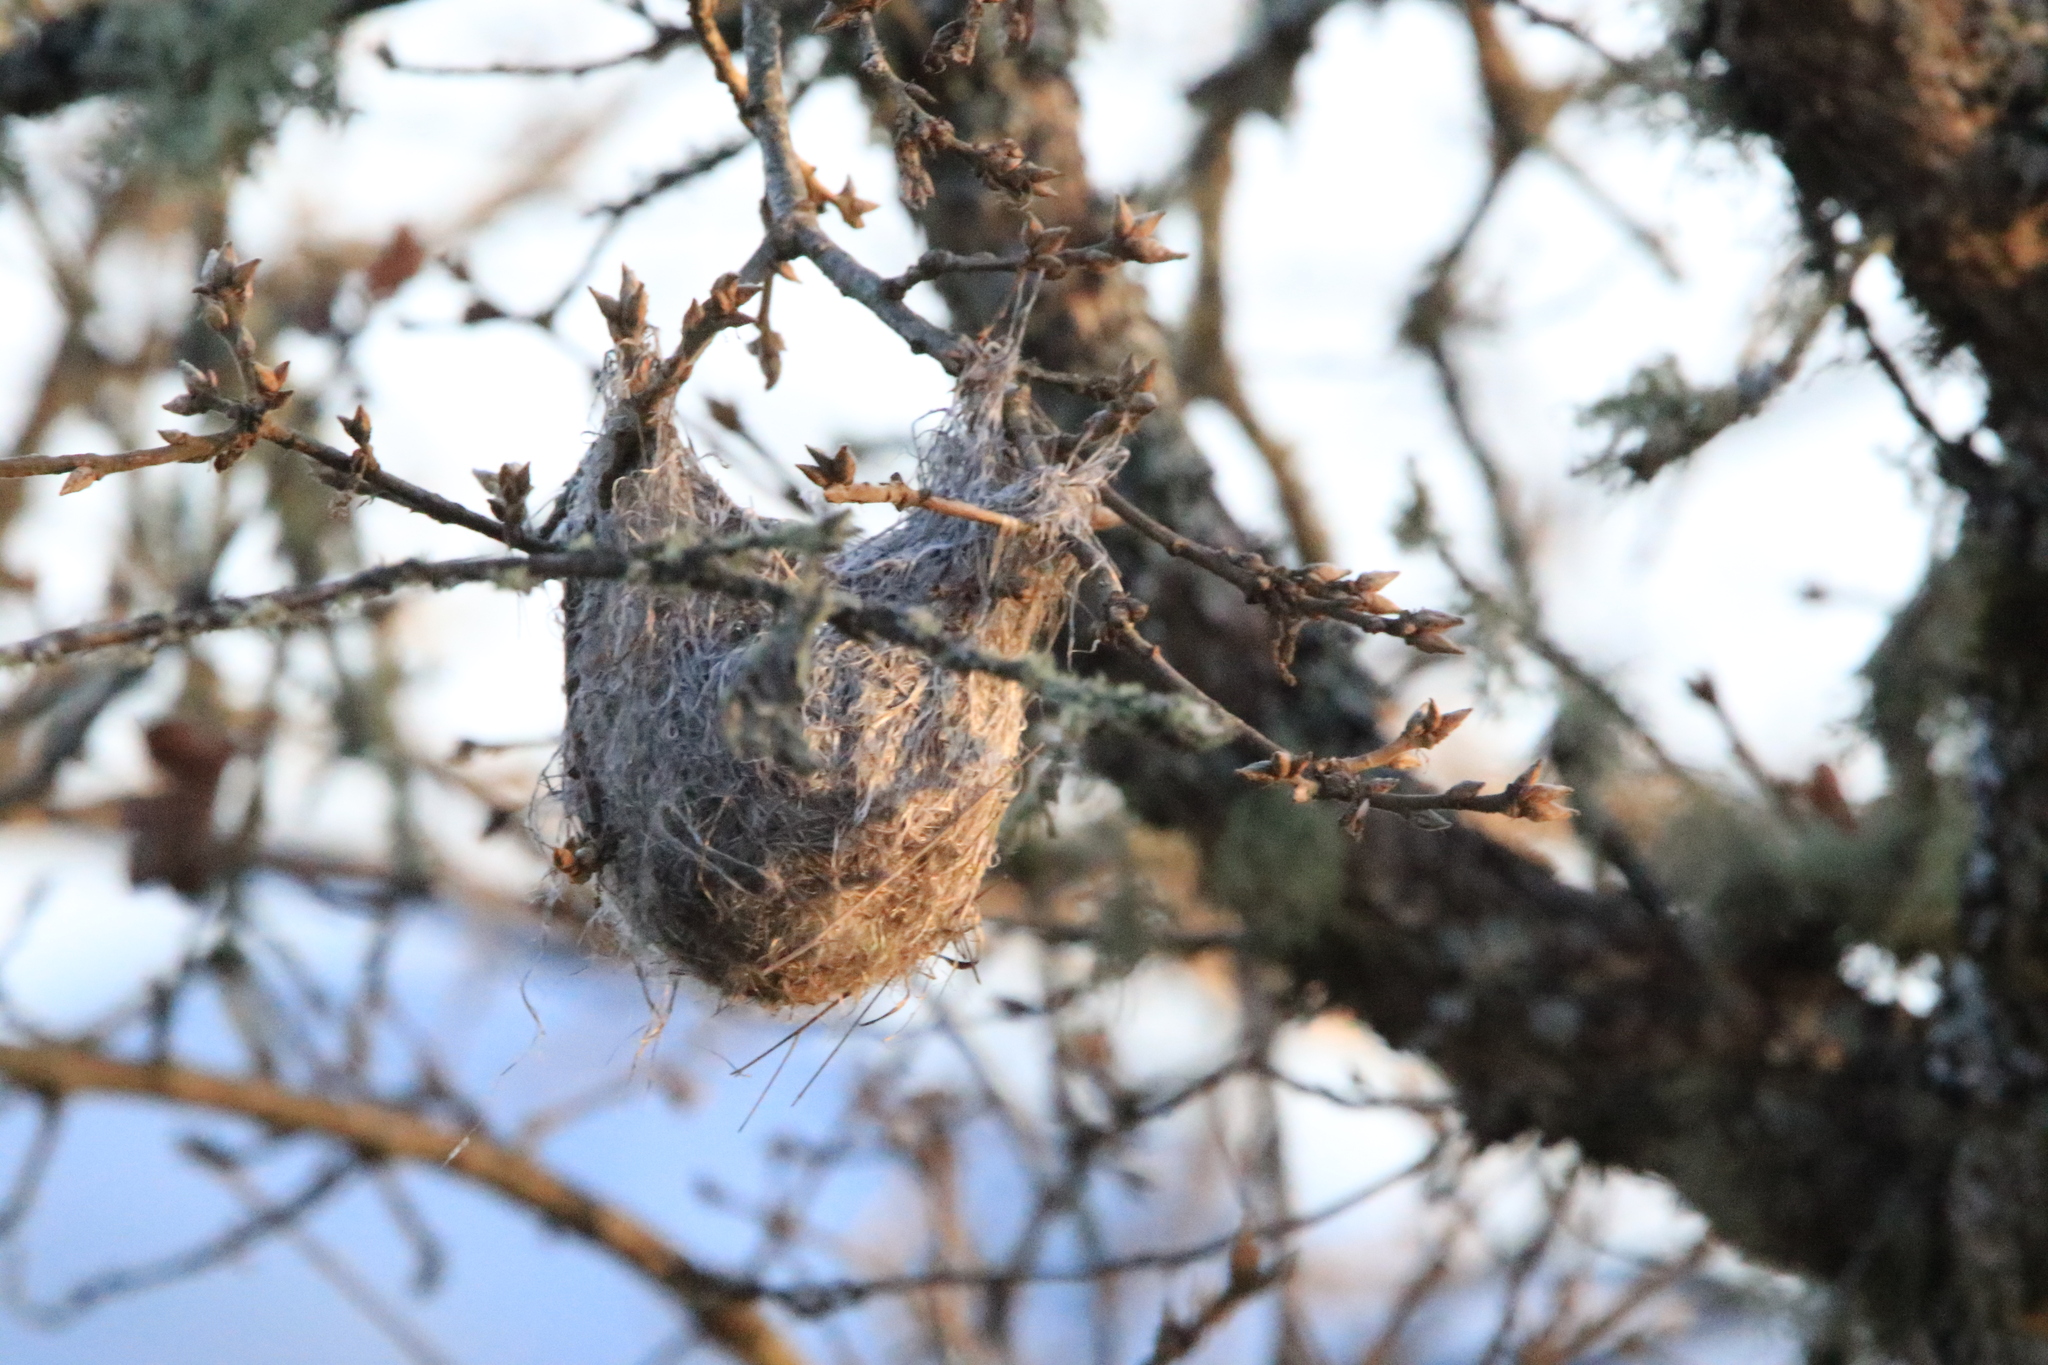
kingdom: Animalia
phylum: Chordata
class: Aves
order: Passeriformes
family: Icteridae
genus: Icterus
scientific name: Icterus bullockii
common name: Bullock's oriole
